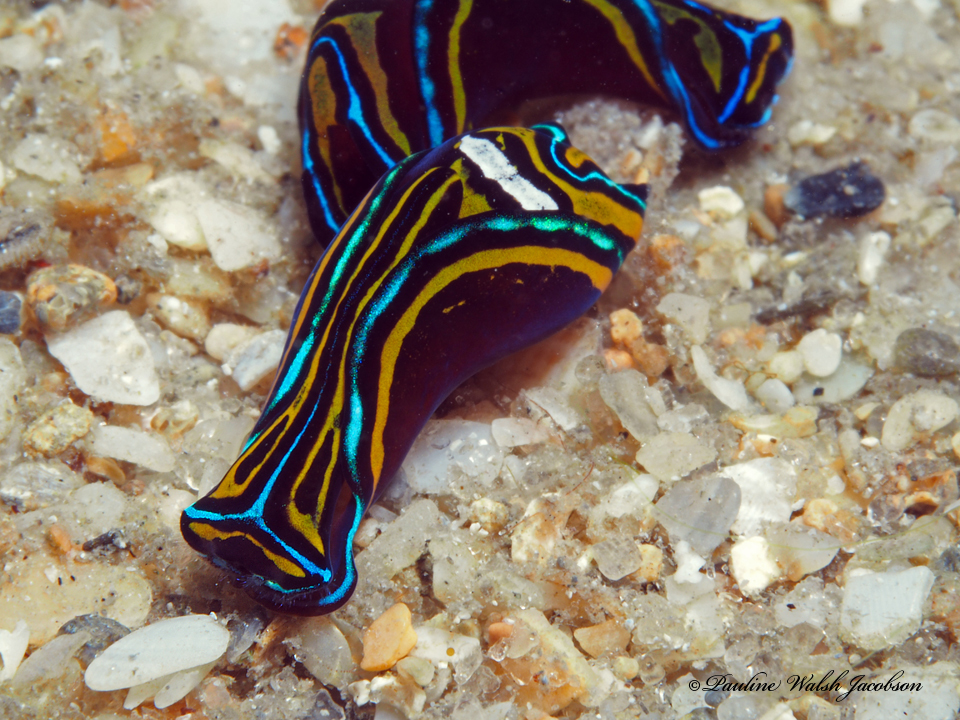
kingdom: Animalia
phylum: Mollusca
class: Gastropoda
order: Cephalaspidea
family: Aglajidae
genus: Chelidonura
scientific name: Chelidonura hirundinina
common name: Leech headshield slug
